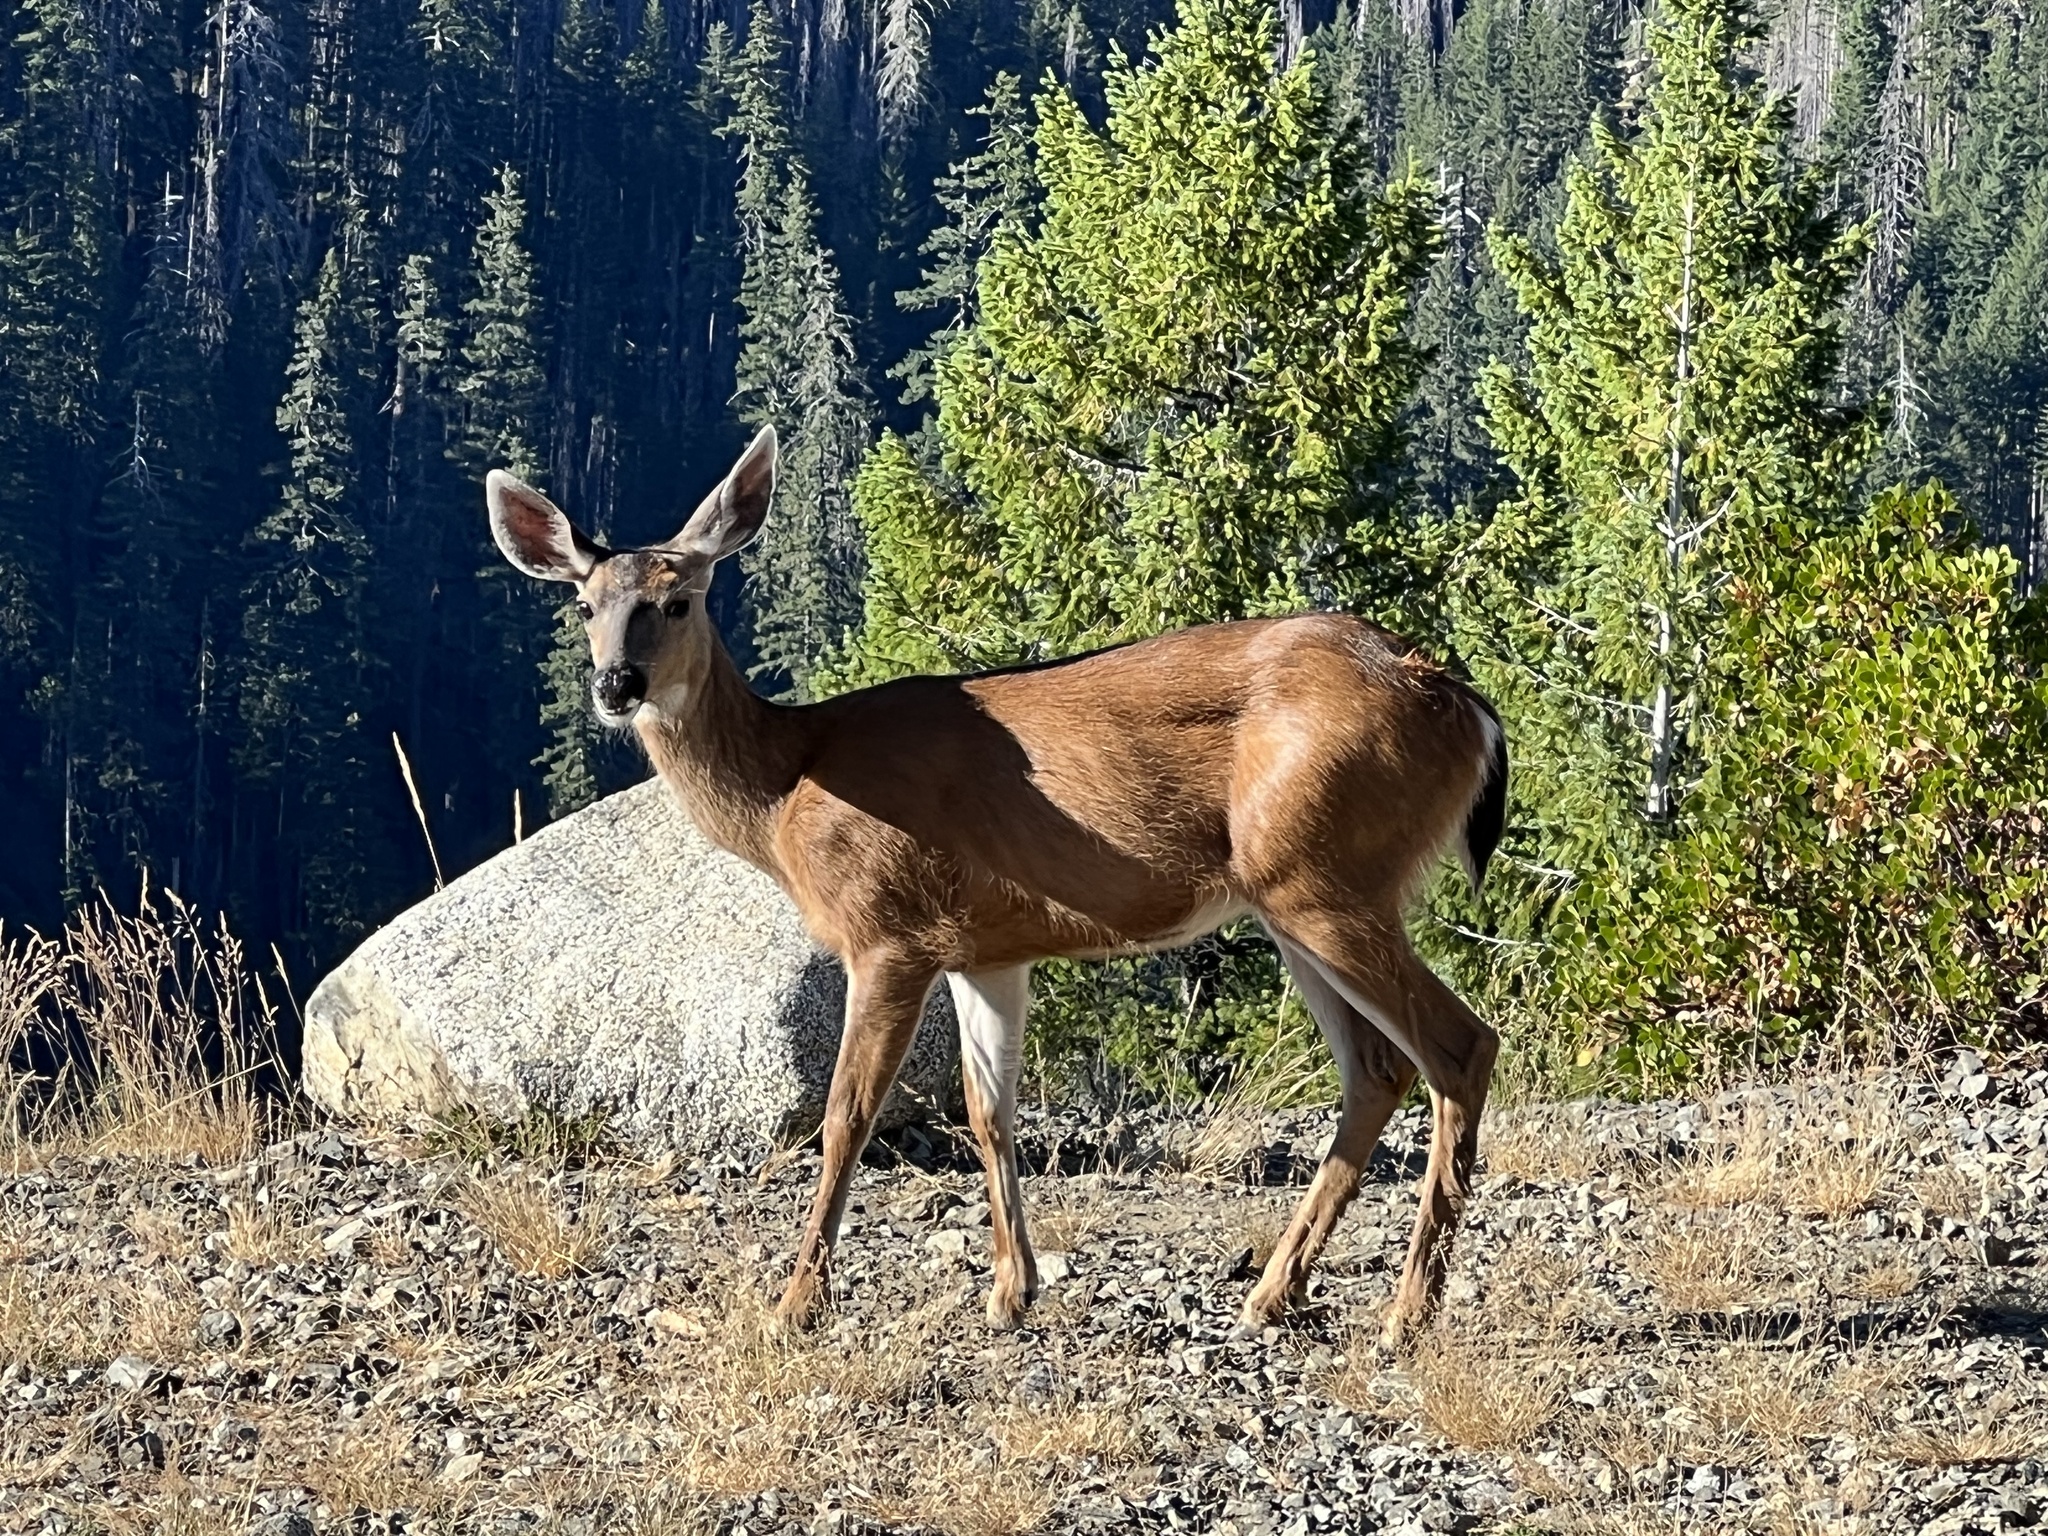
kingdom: Animalia
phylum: Chordata
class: Mammalia
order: Artiodactyla
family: Cervidae
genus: Odocoileus
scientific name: Odocoileus hemionus
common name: Mule deer
